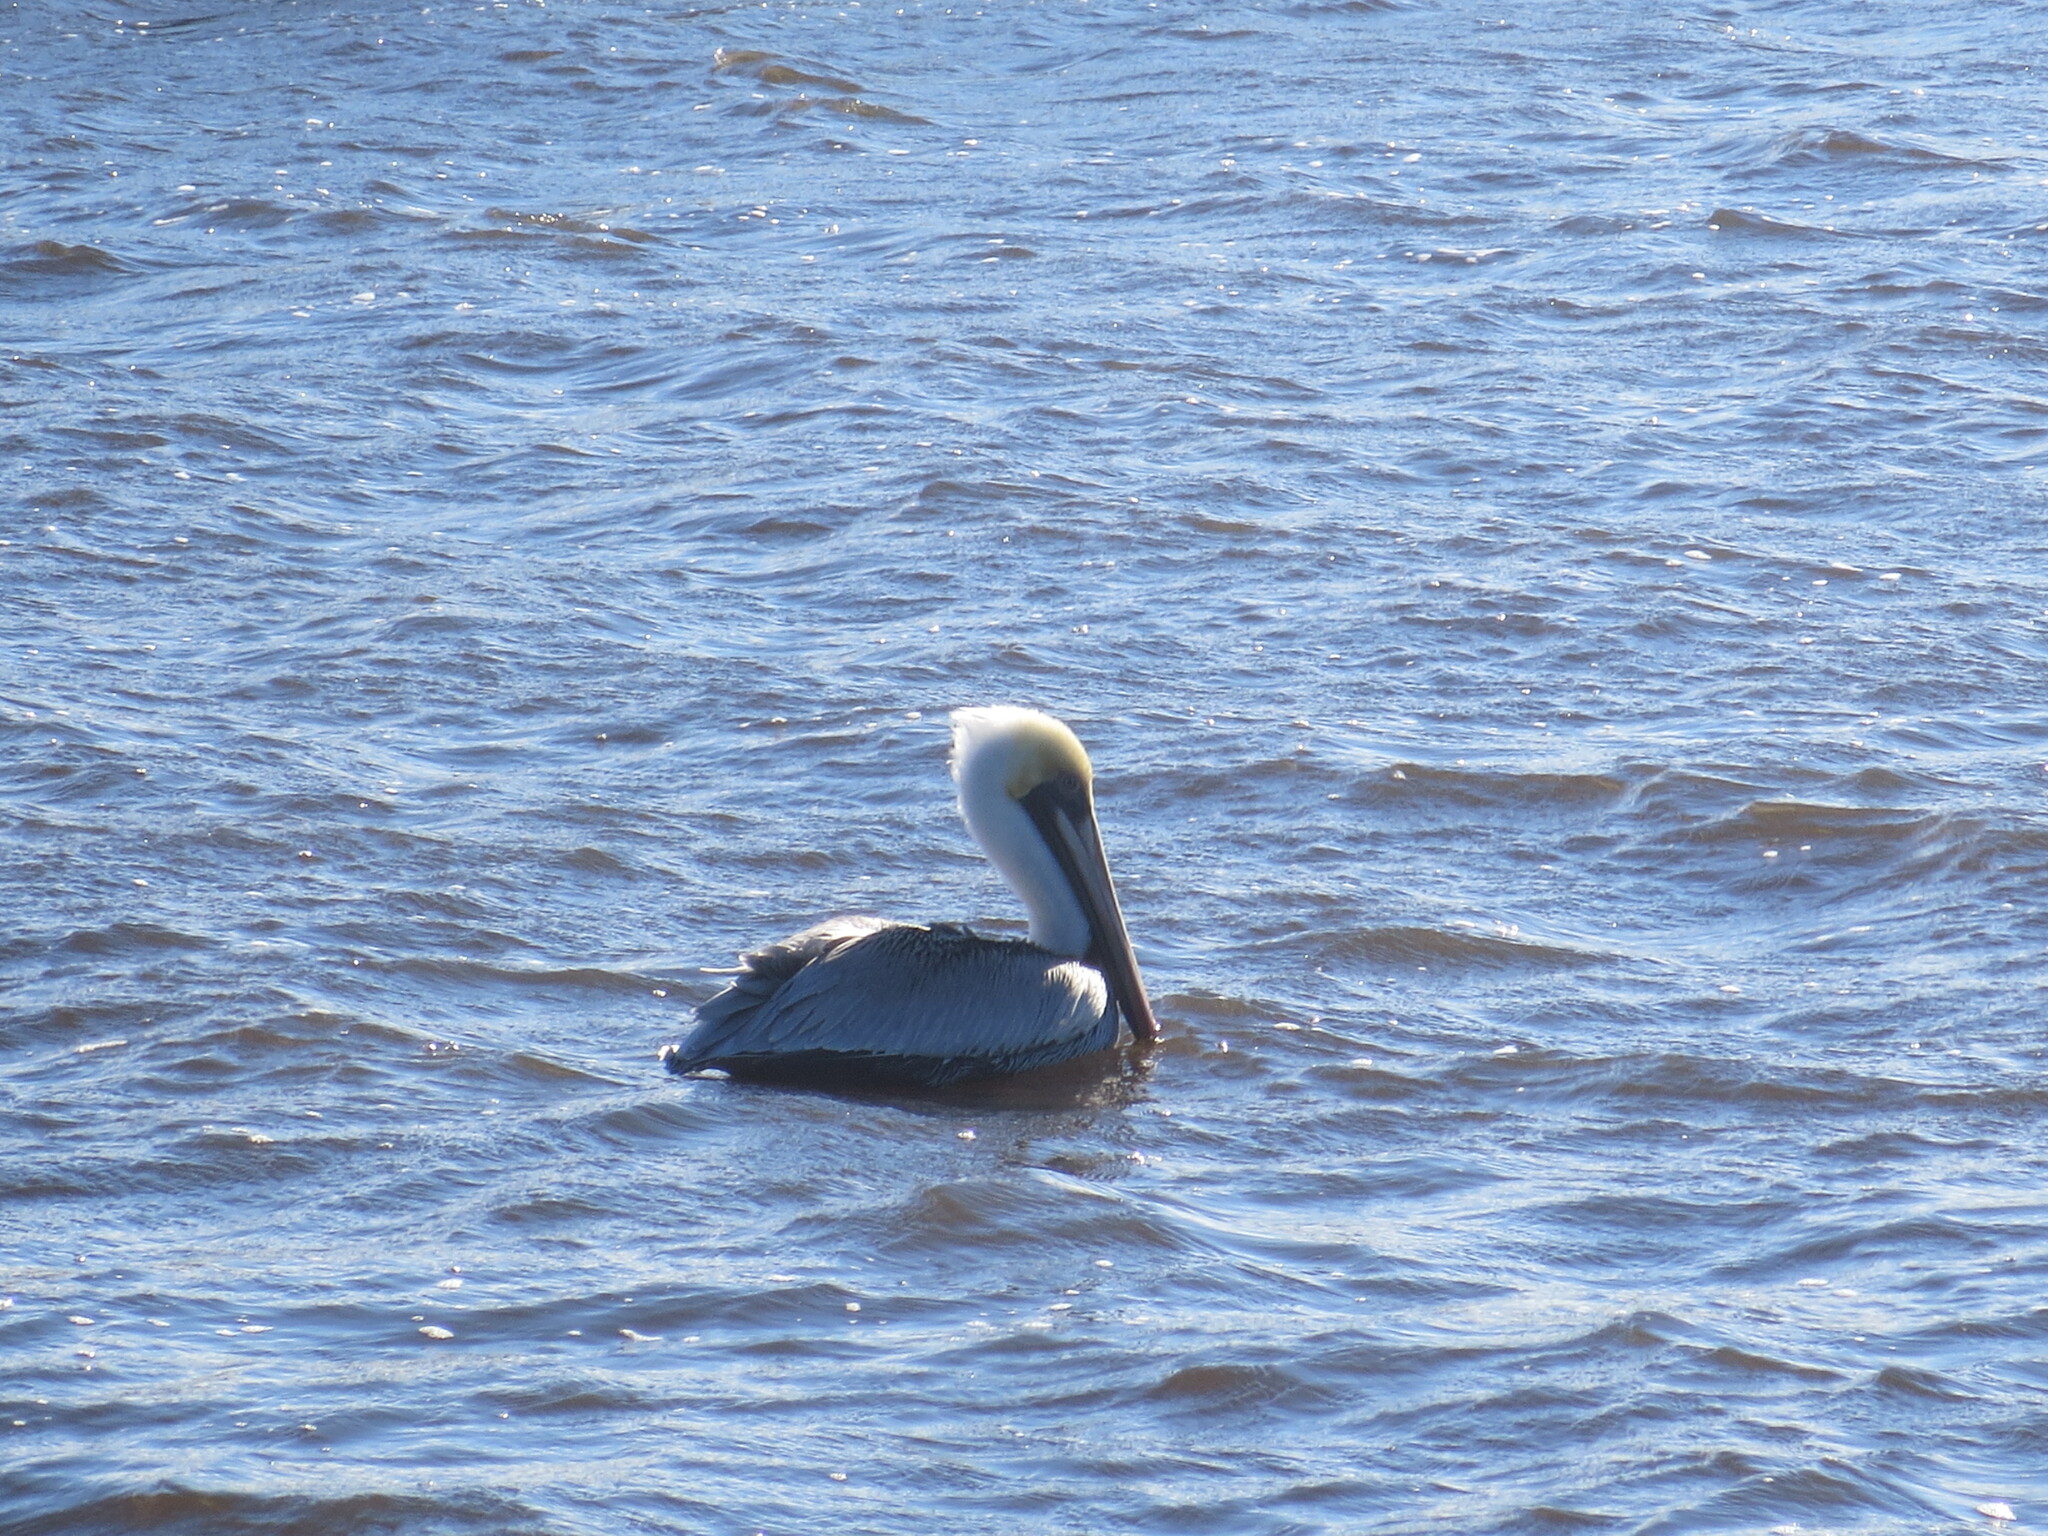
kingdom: Animalia
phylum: Chordata
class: Aves
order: Pelecaniformes
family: Pelecanidae
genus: Pelecanus
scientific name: Pelecanus occidentalis
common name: Brown pelican
